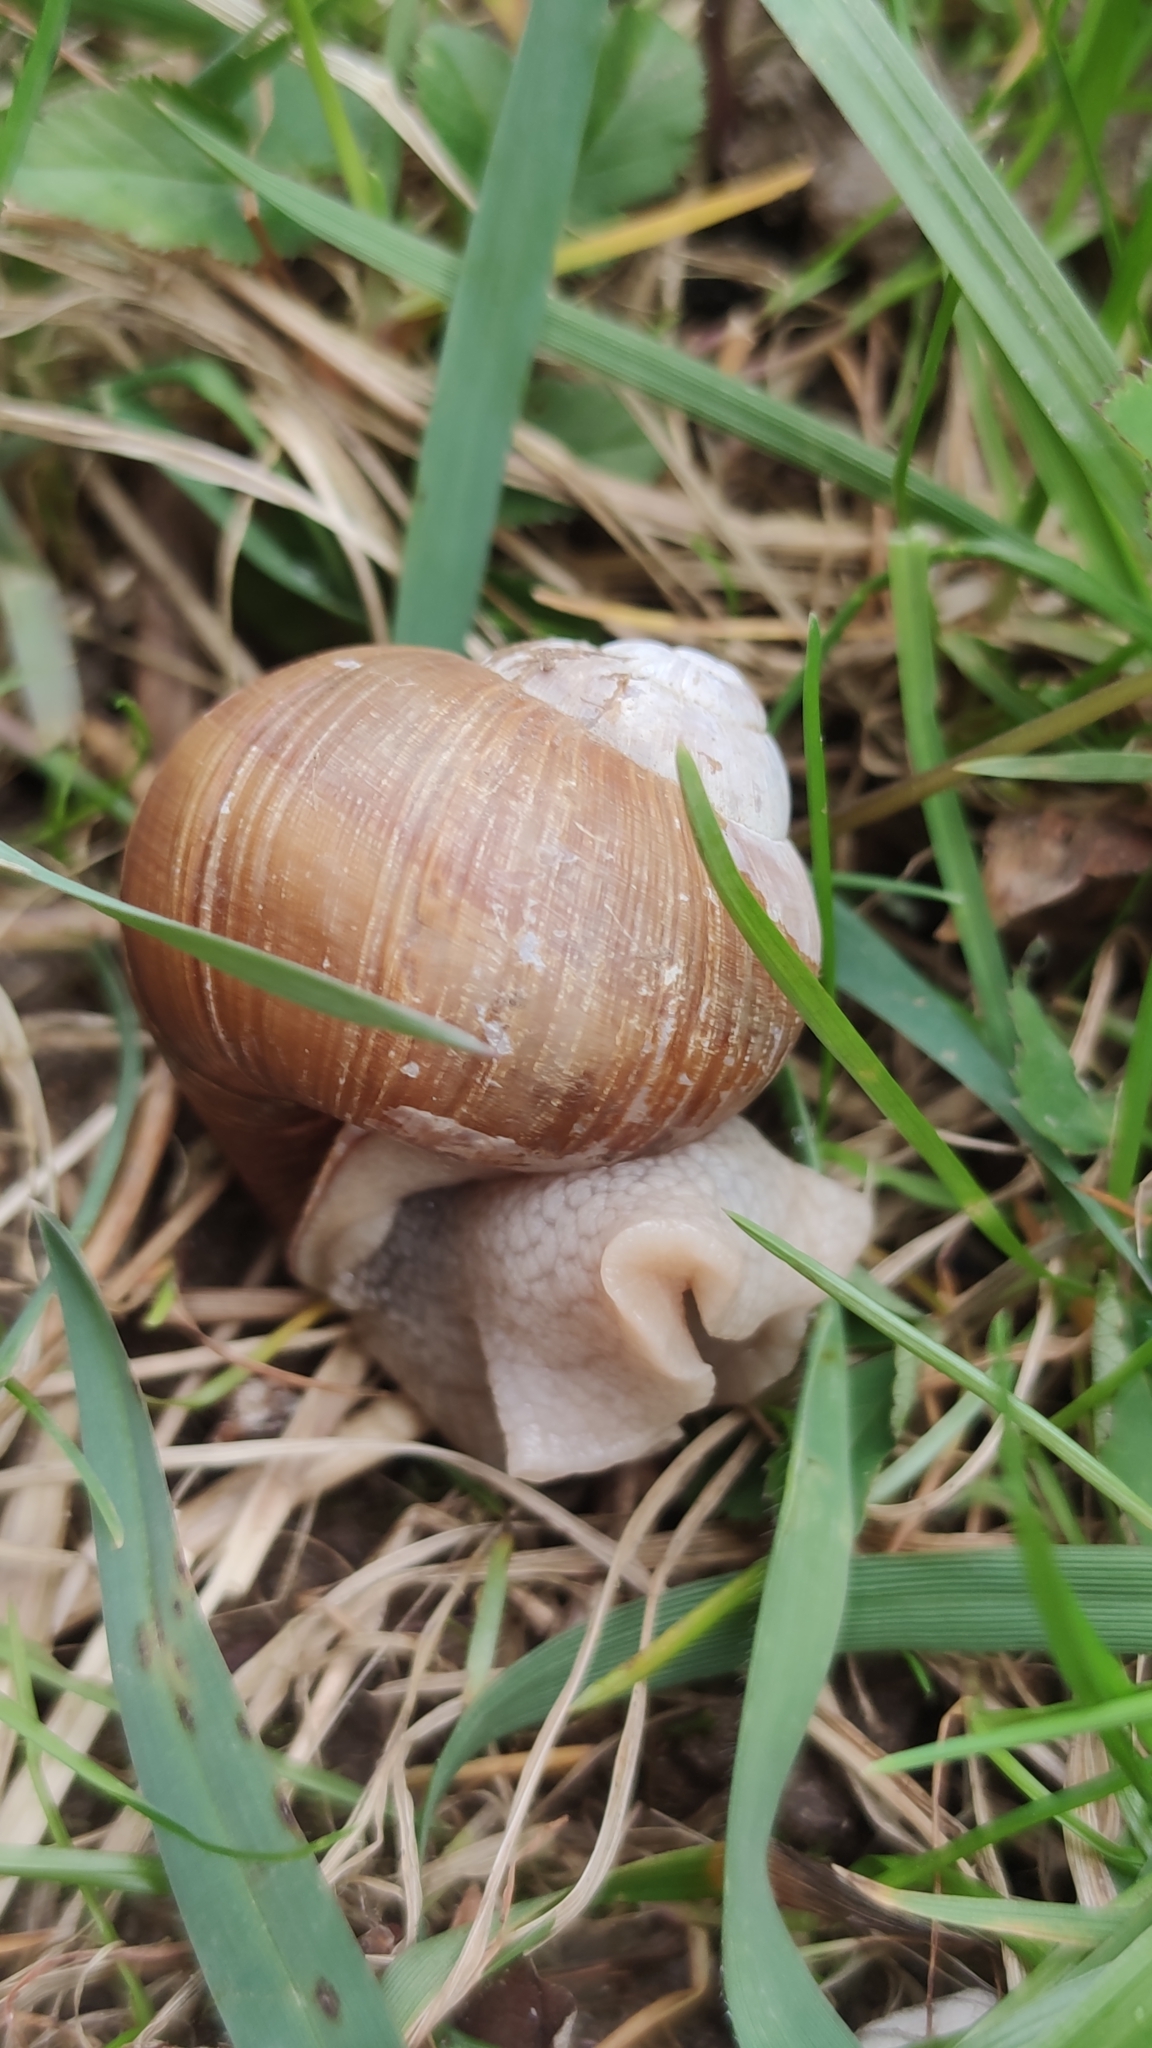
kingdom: Animalia
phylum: Mollusca
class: Gastropoda
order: Stylommatophora
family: Helicidae
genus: Helix
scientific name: Helix pomatia
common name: Roman snail
